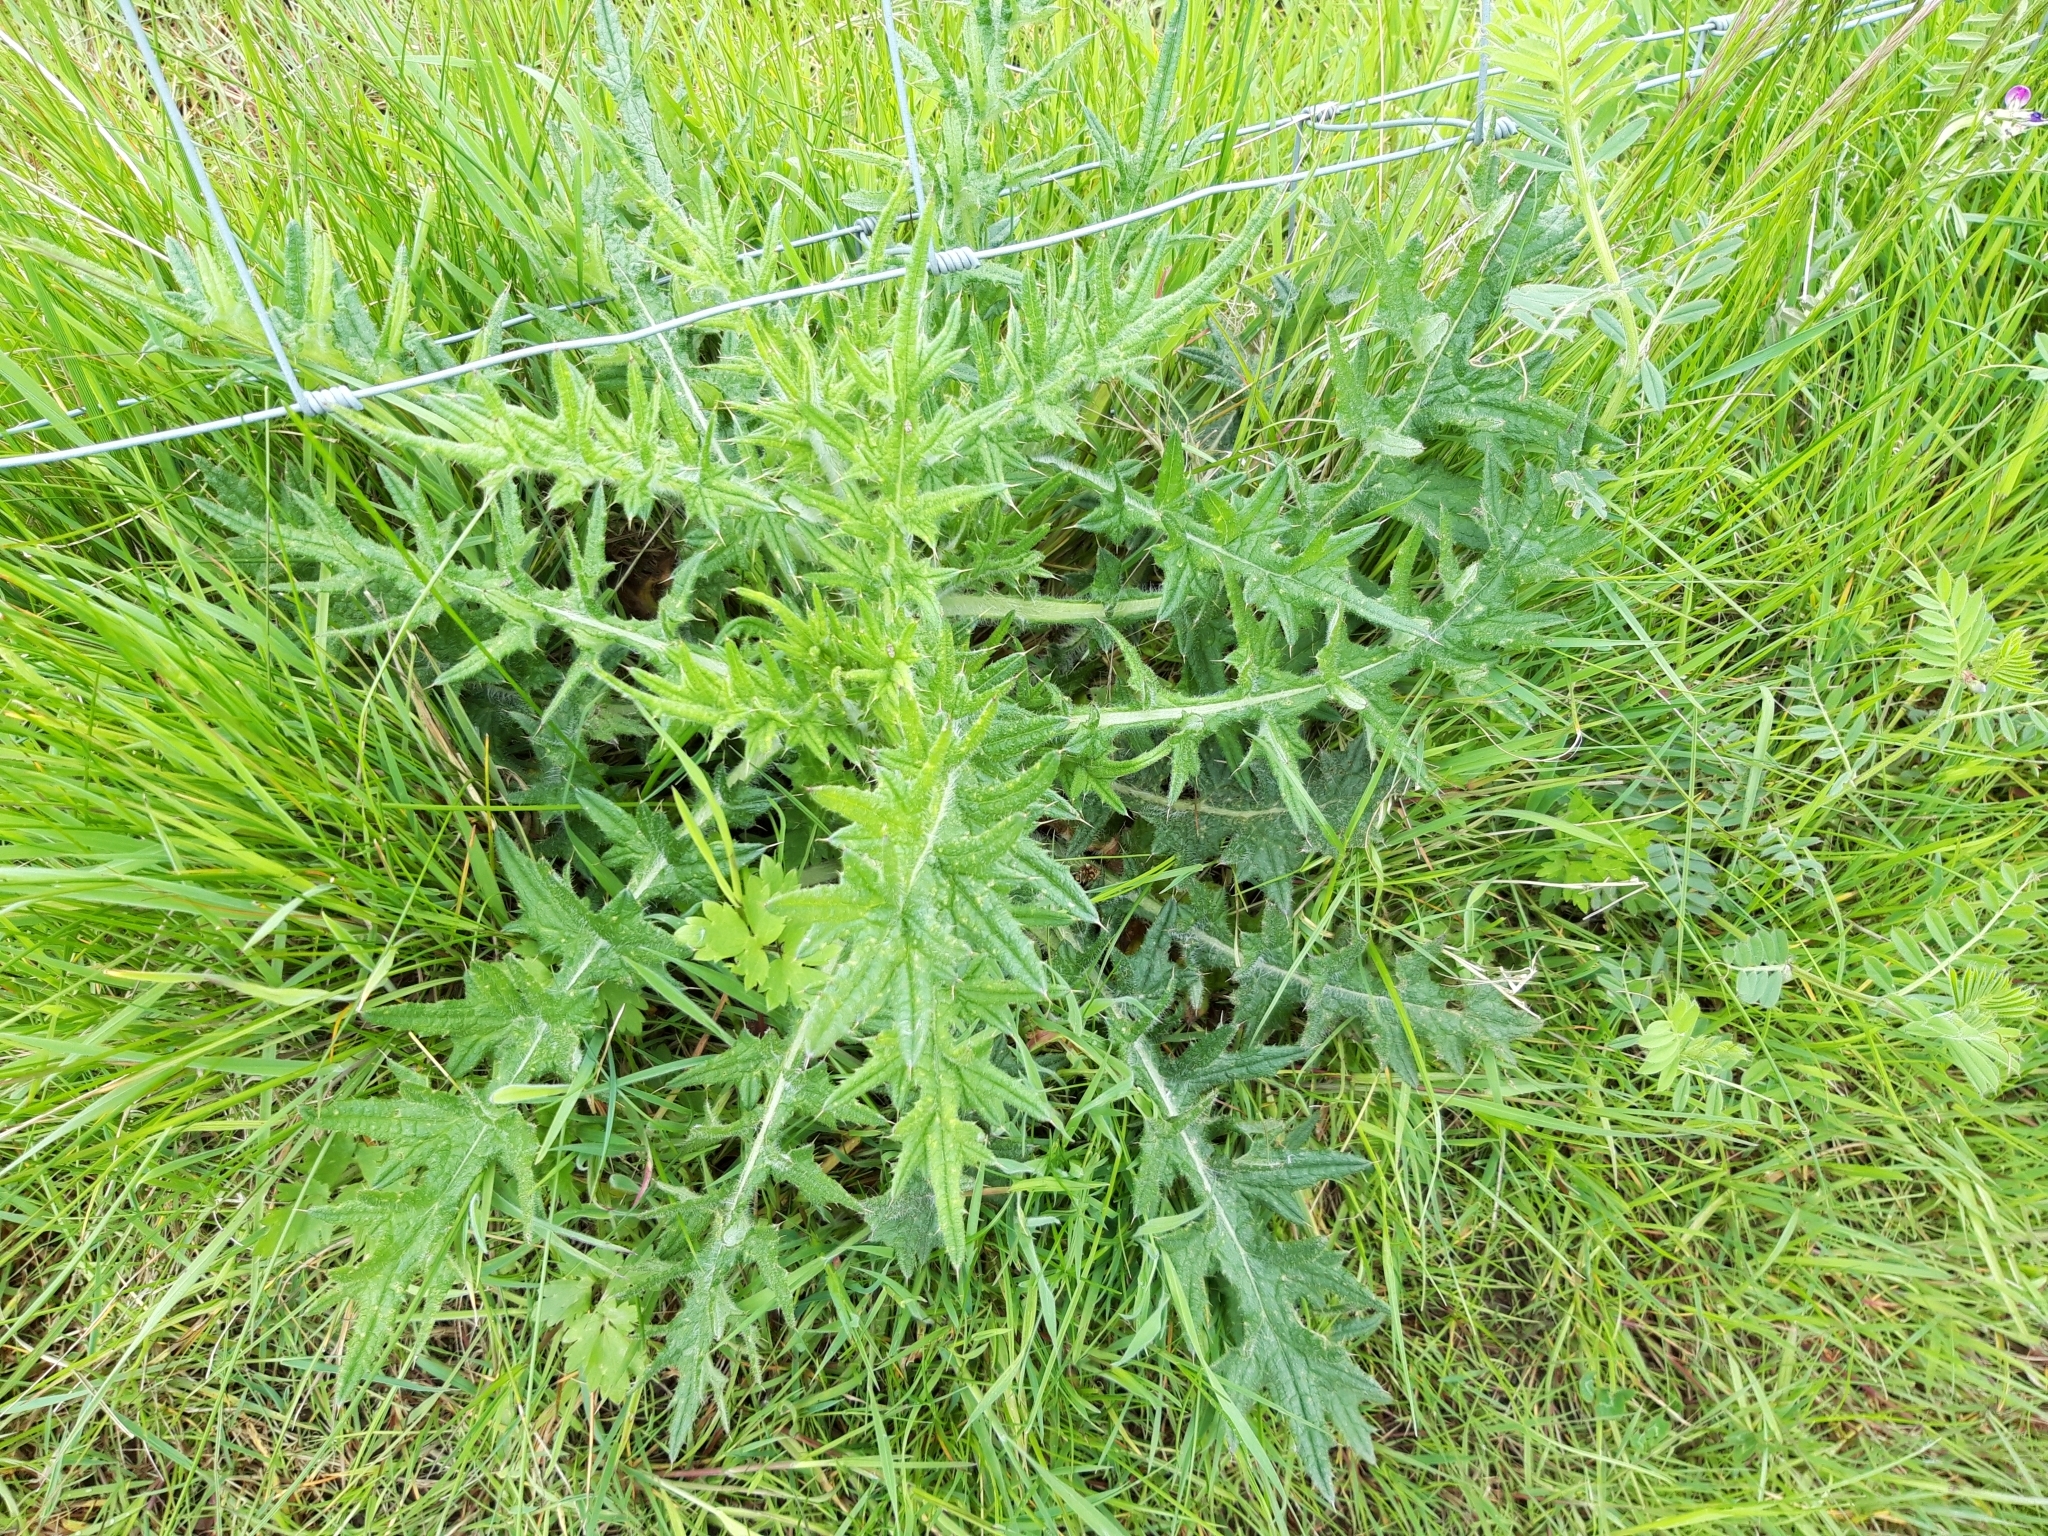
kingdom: Plantae
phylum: Tracheophyta
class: Magnoliopsida
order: Asterales
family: Asteraceae
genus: Cirsium
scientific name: Cirsium vulgare
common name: Bull thistle
